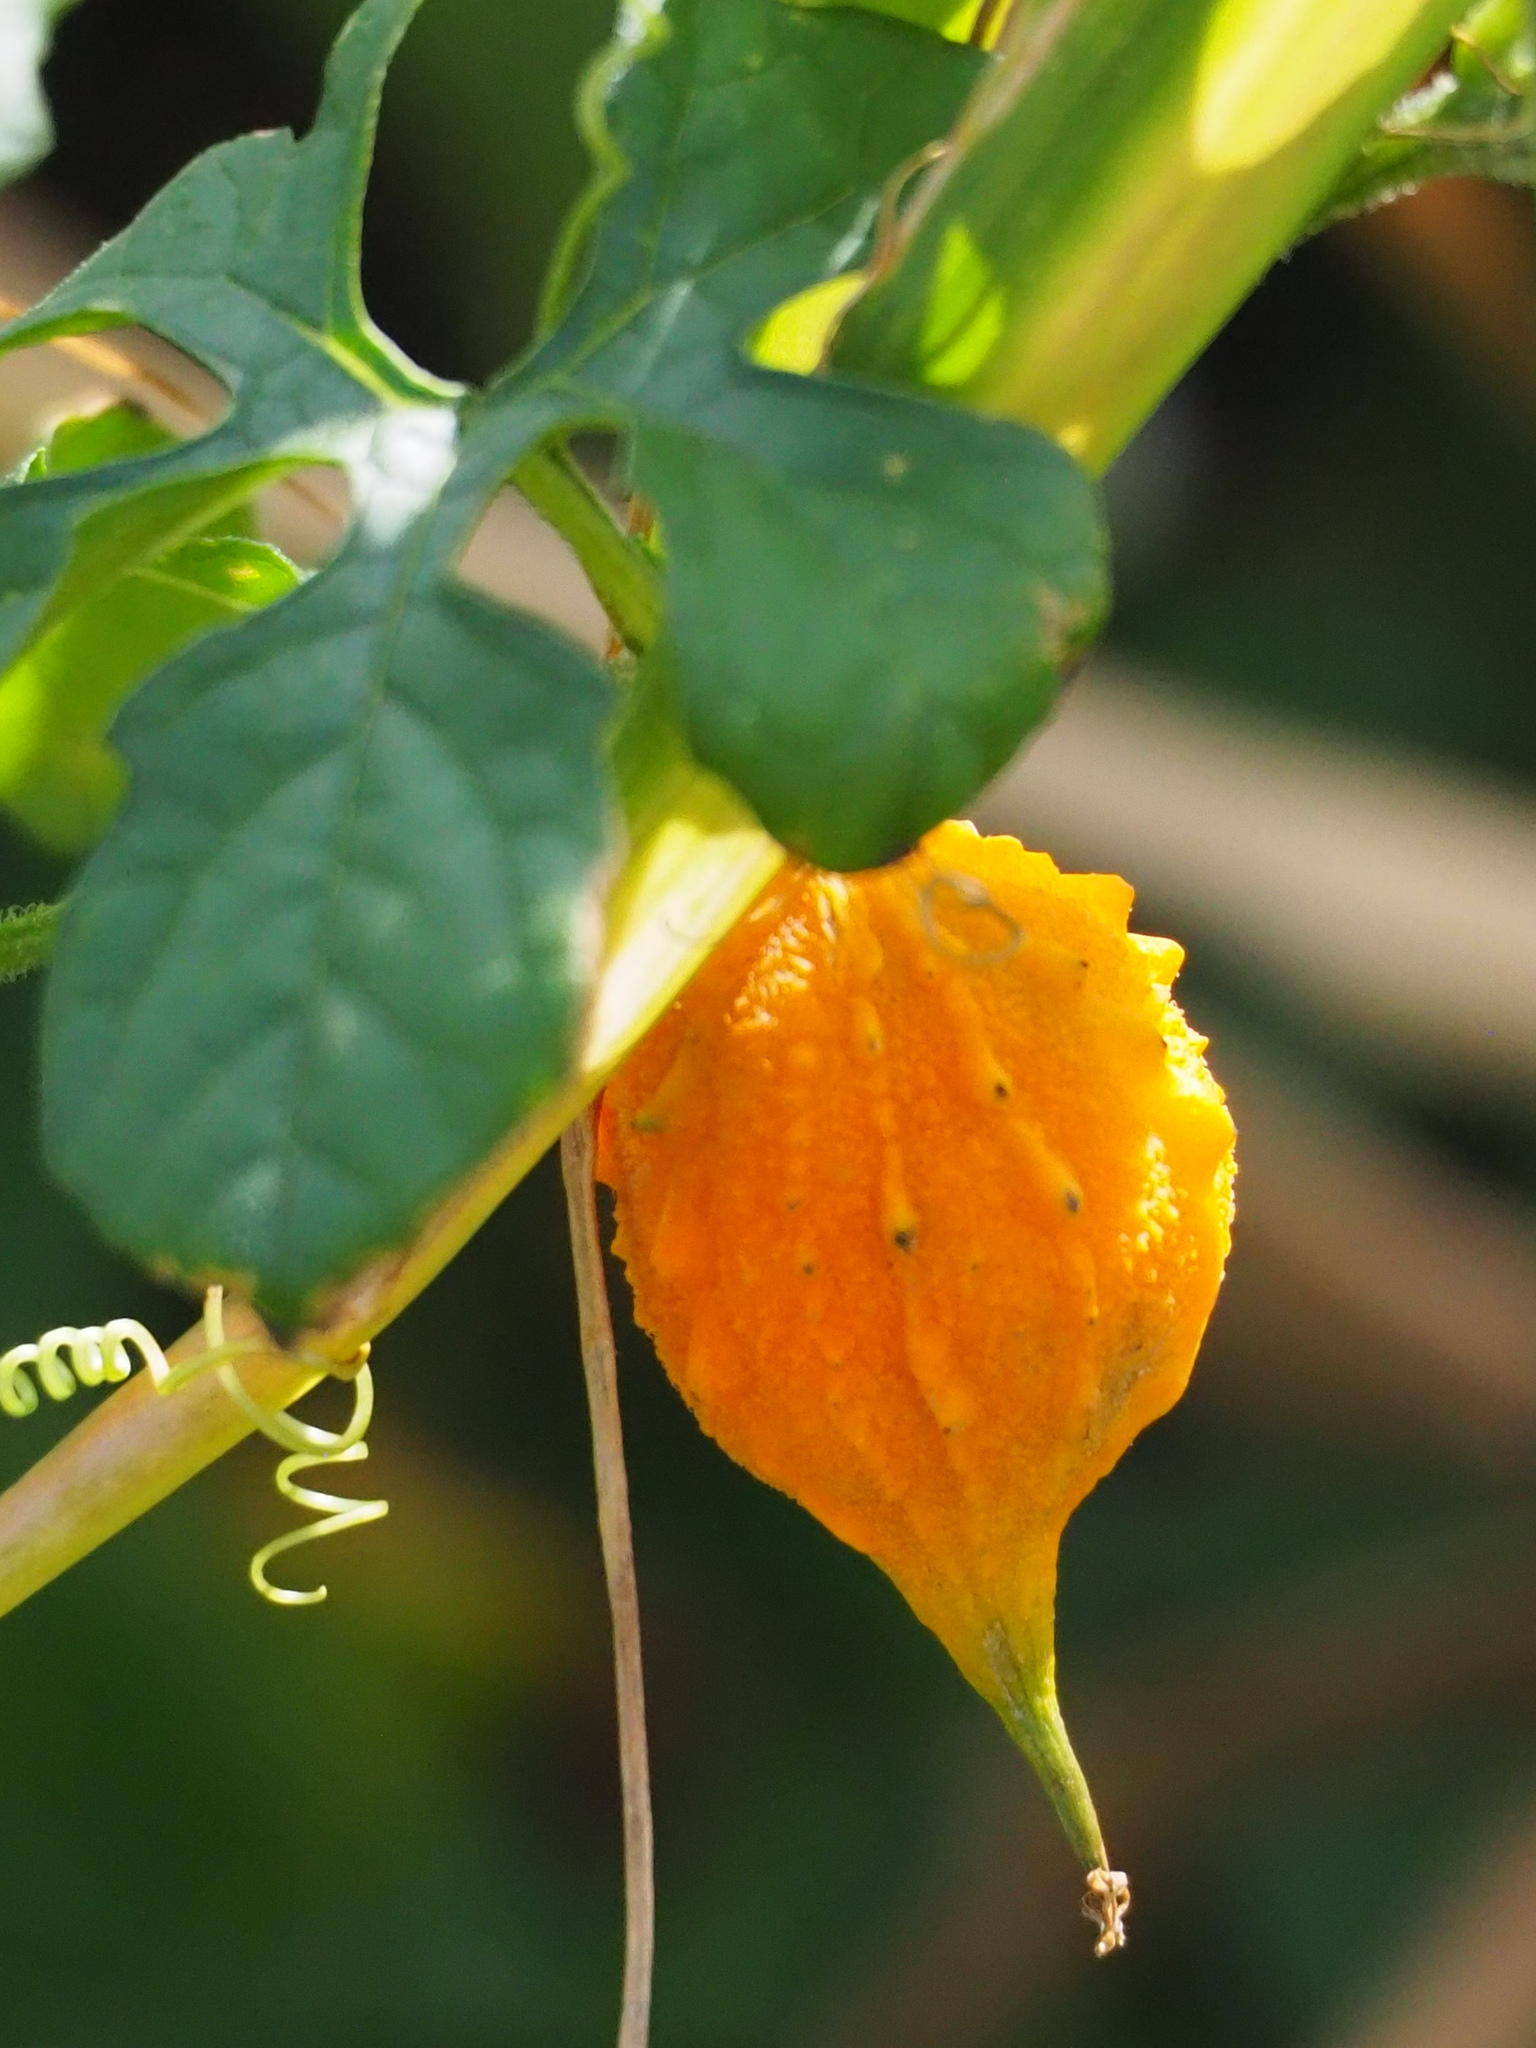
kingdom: Plantae
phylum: Tracheophyta
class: Magnoliopsida
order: Cucurbitales
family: Cucurbitaceae
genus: Momordica
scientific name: Momordica charantia
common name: Balsampear
